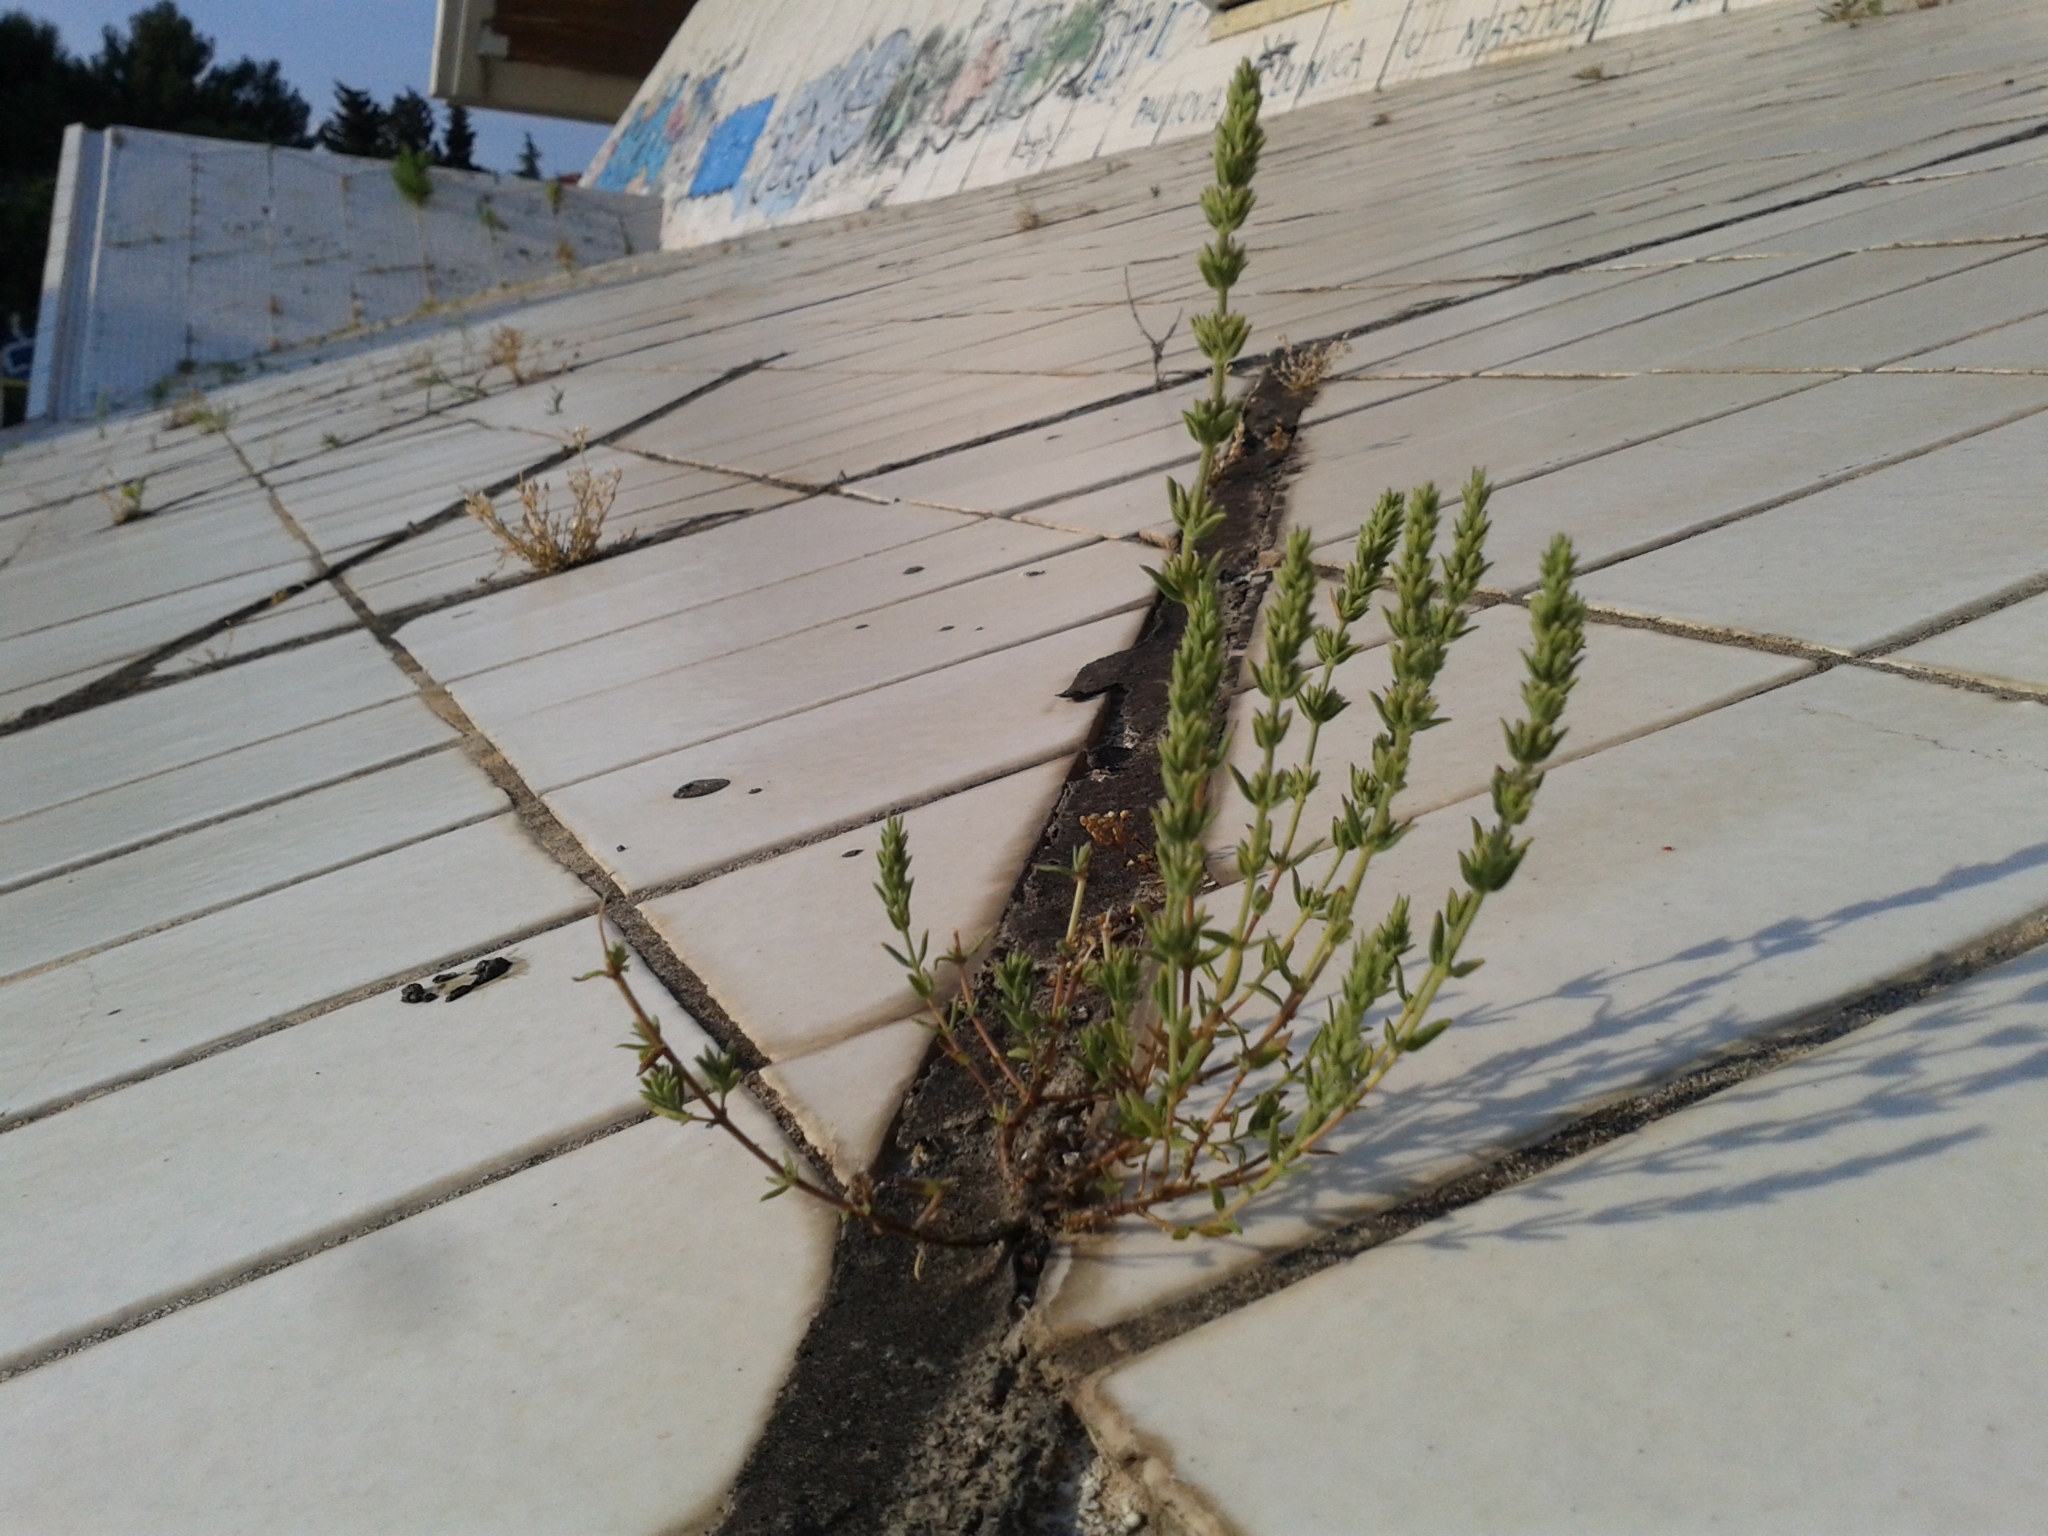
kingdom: Plantae
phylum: Tracheophyta
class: Magnoliopsida
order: Lamiales
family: Lamiaceae
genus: Micromeria
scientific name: Micromeria juliana
